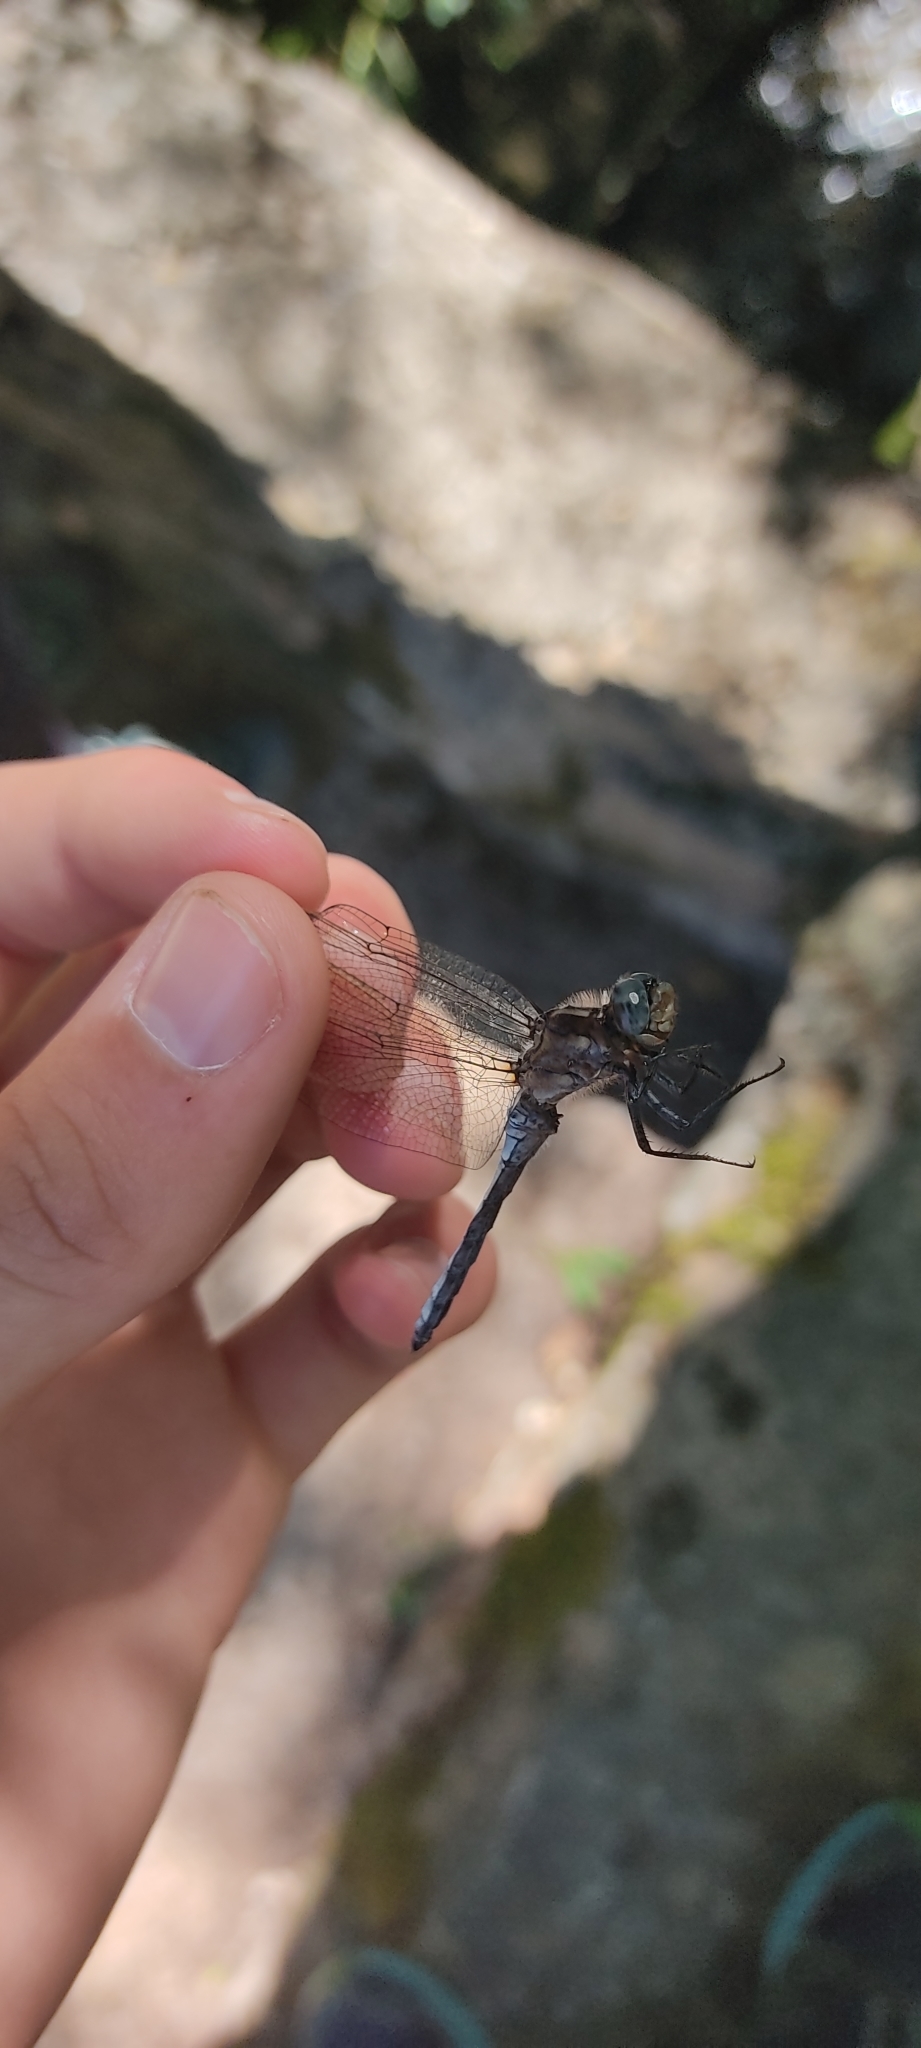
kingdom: Animalia
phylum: Arthropoda
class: Insecta
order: Odonata
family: Libellulidae
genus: Orthetrum
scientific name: Orthetrum coerulescens
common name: Keeled skimmer
